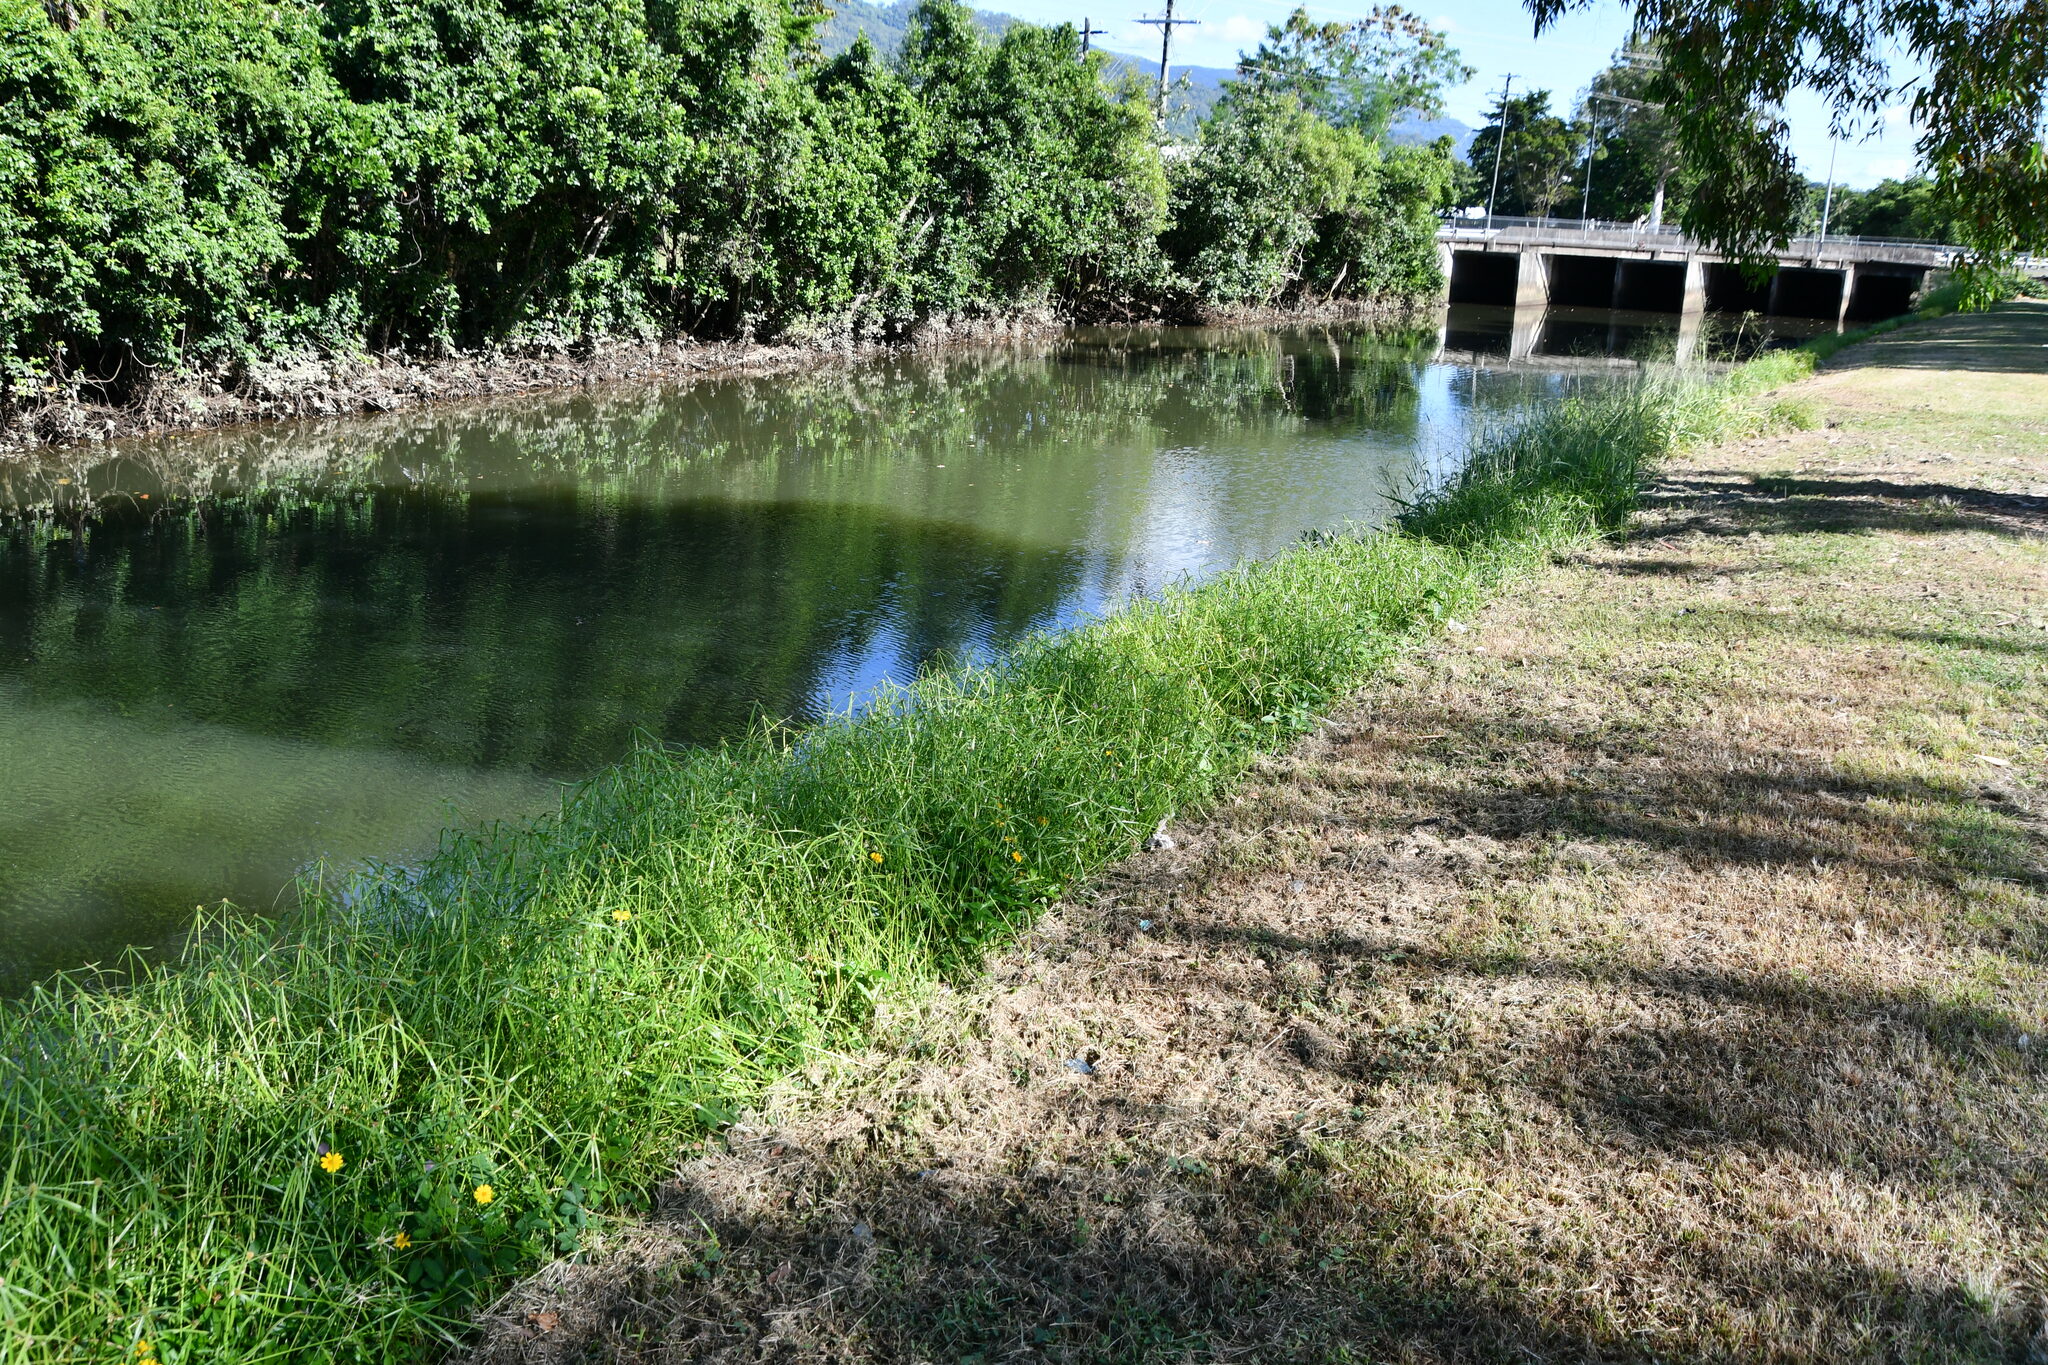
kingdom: Plantae
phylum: Tracheophyta
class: Liliopsida
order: Poales
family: Cyperaceae
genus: Cyperus
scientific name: Cyperus aromaticus
